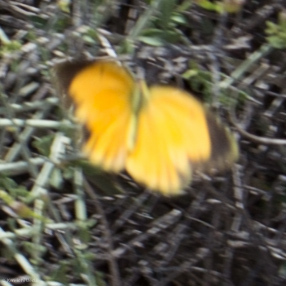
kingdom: Animalia
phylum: Arthropoda
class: Insecta
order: Lepidoptera
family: Pieridae
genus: Abaeis
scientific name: Abaeis nicippe
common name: Sleepy orange
